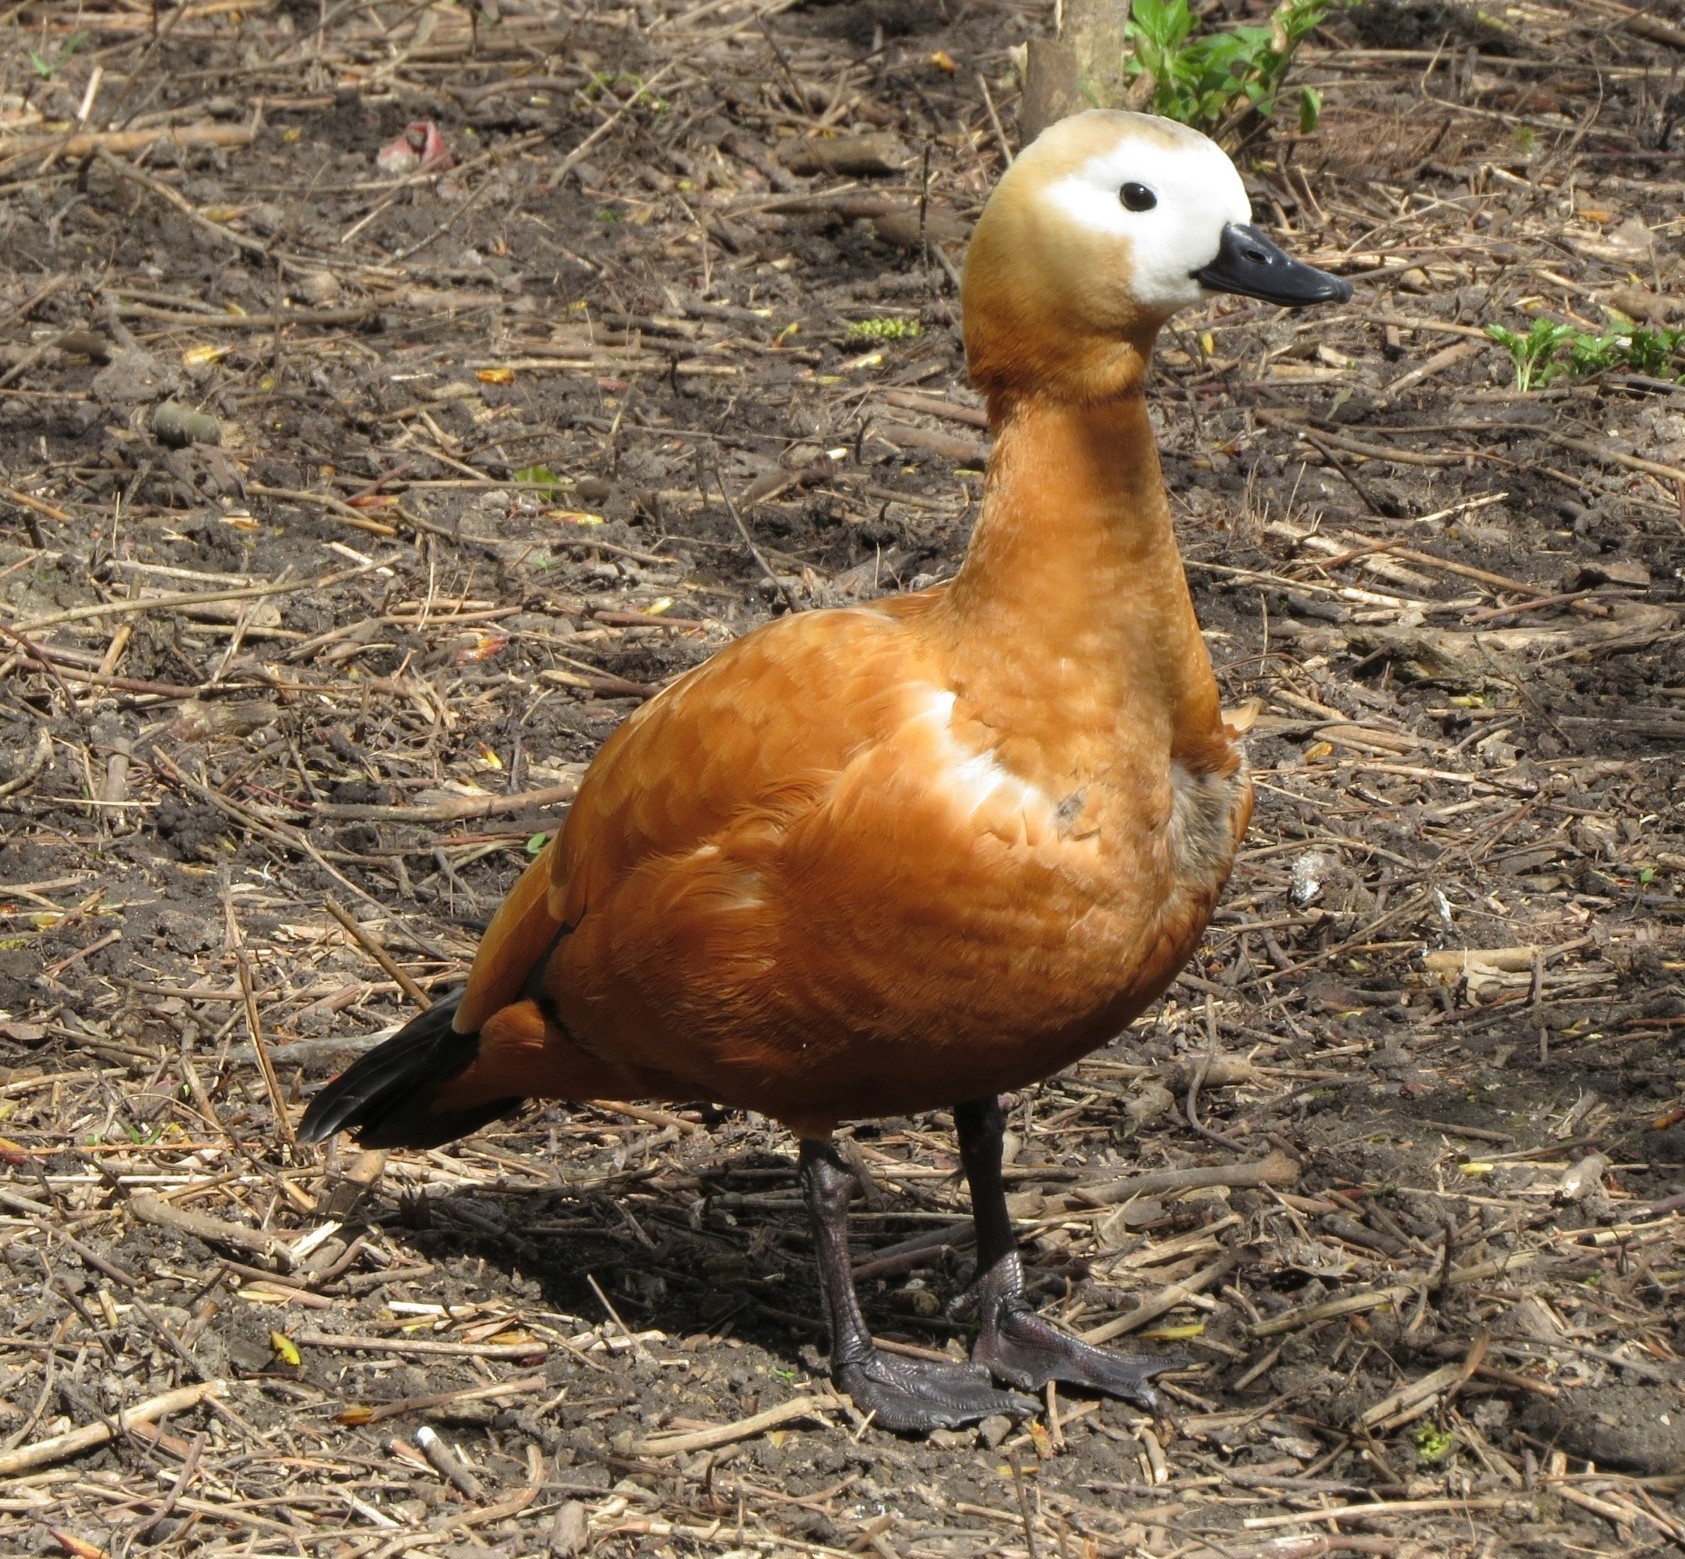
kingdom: Animalia
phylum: Chordata
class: Aves
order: Anseriformes
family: Anatidae
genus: Tadorna
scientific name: Tadorna ferruginea
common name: Ruddy shelduck
